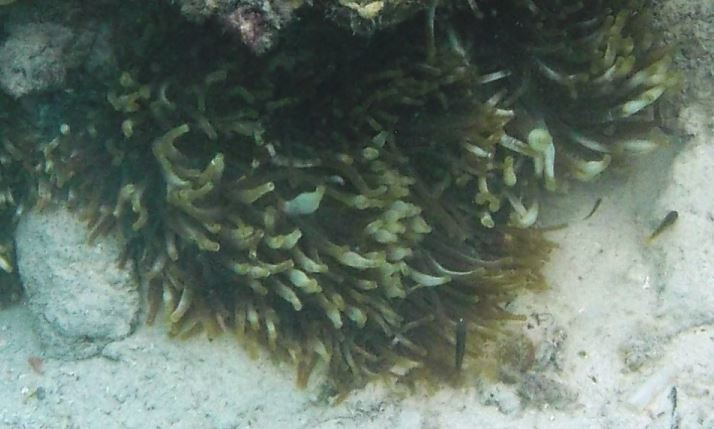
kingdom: Animalia
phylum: Cnidaria
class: Anthozoa
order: Actiniaria
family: Actiniidae
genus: Entacmaea
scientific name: Entacmaea quadricolor
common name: Bulb tentacle sea anemone
